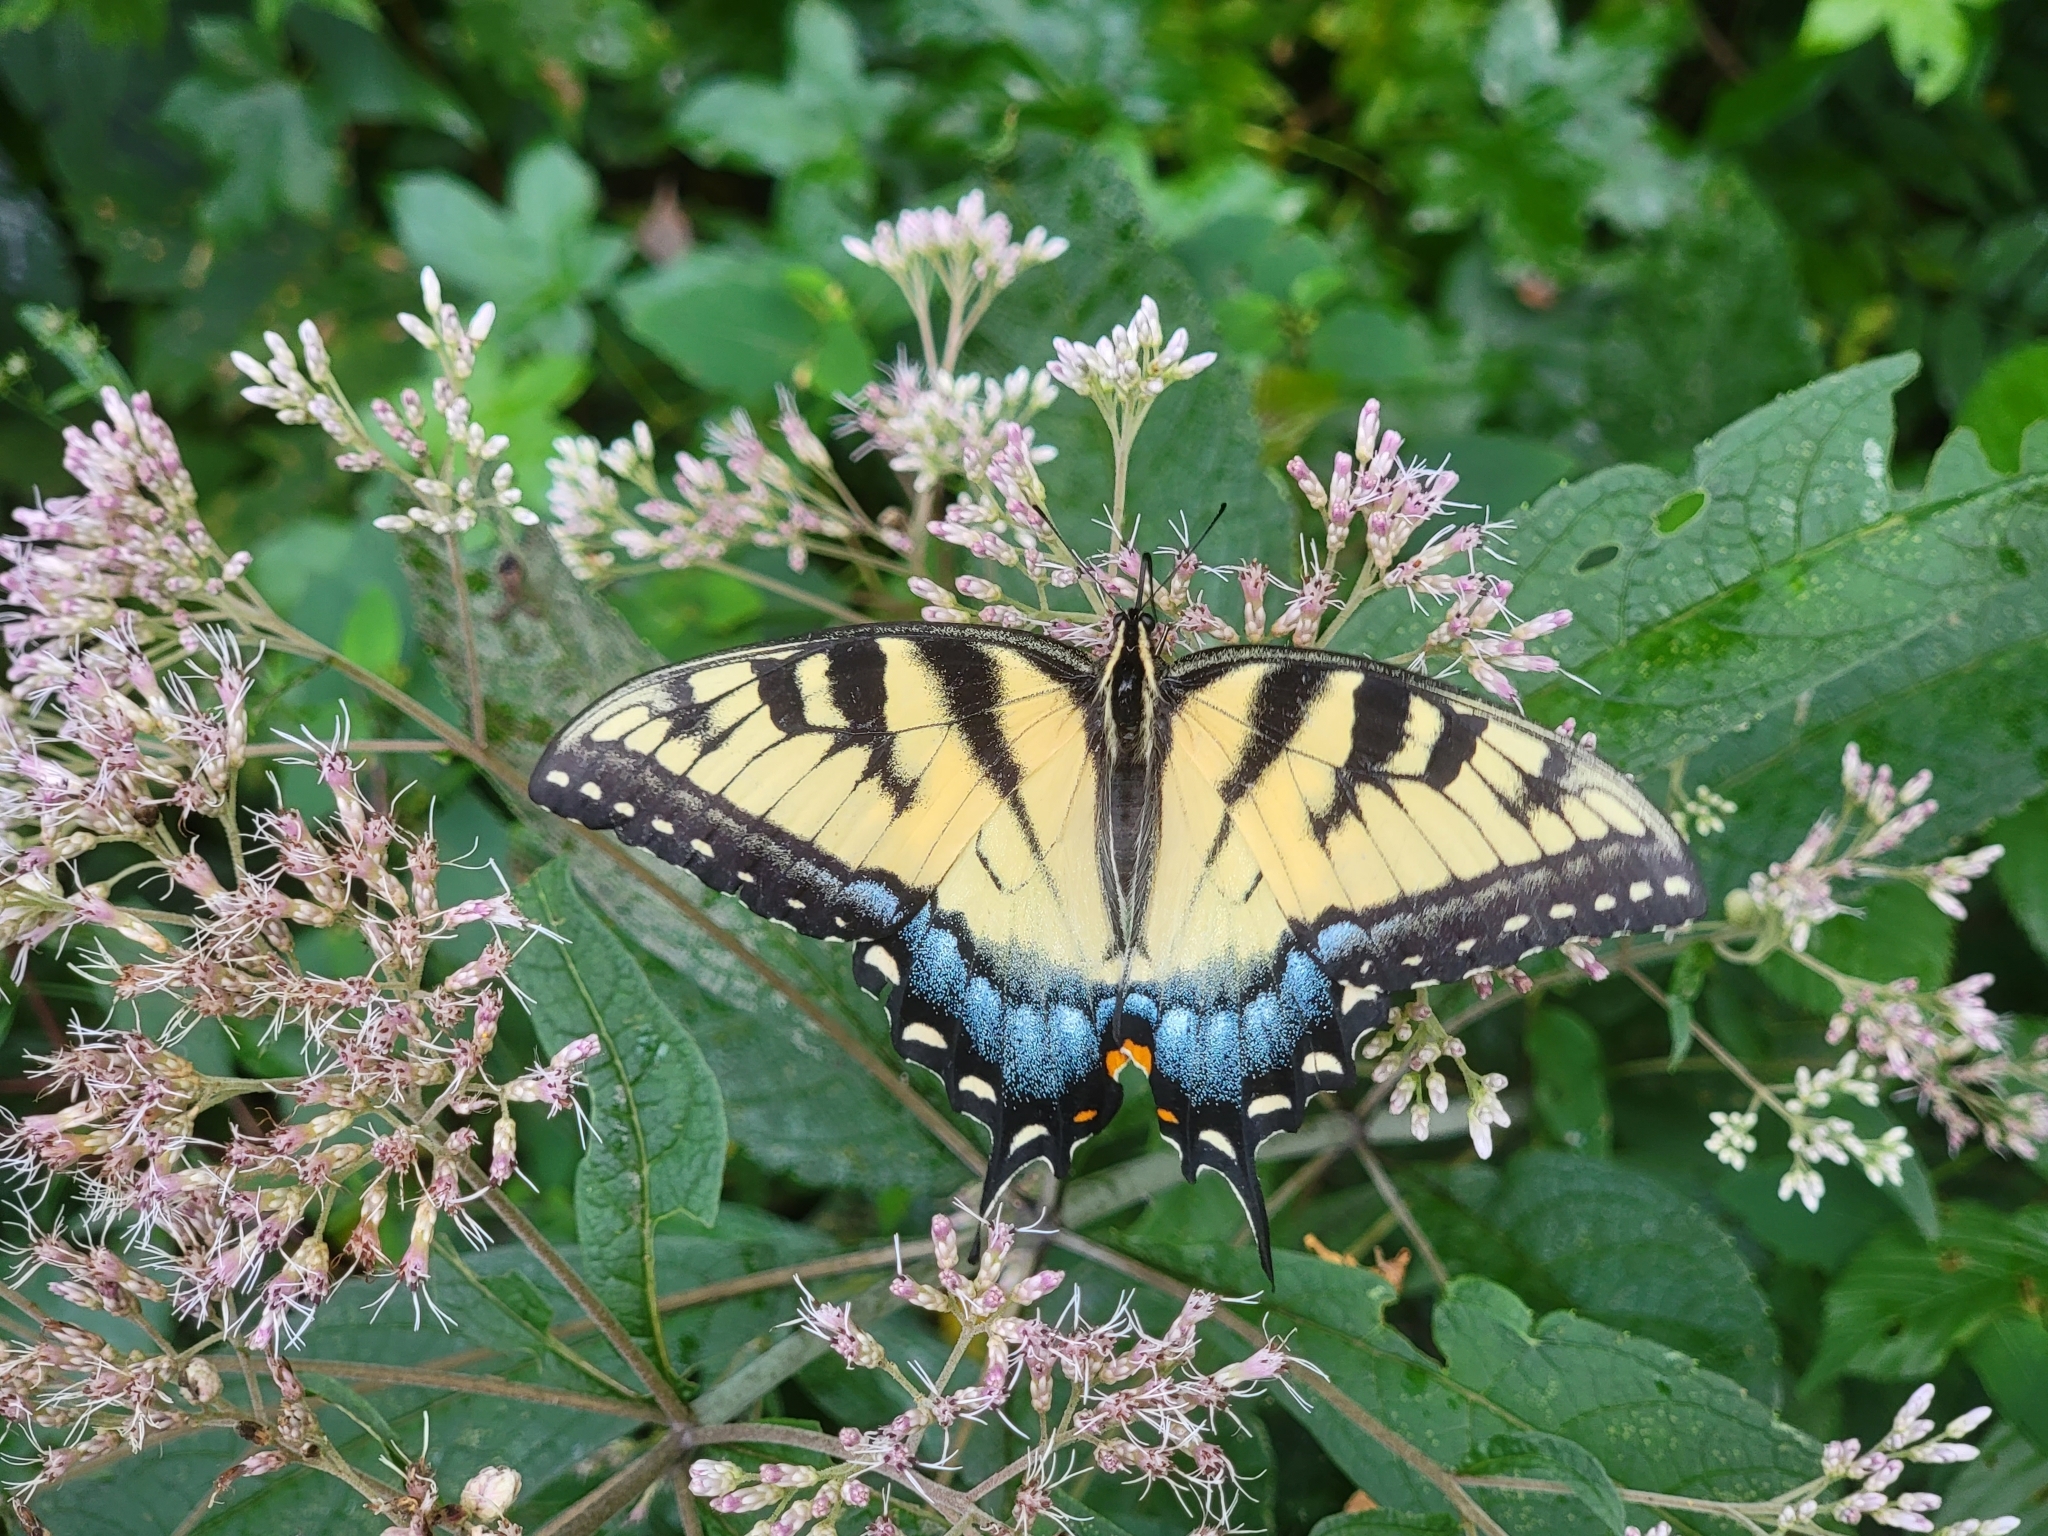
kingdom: Animalia
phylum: Arthropoda
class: Insecta
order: Lepidoptera
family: Papilionidae
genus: Papilio
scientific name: Papilio glaucus
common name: Tiger swallowtail
